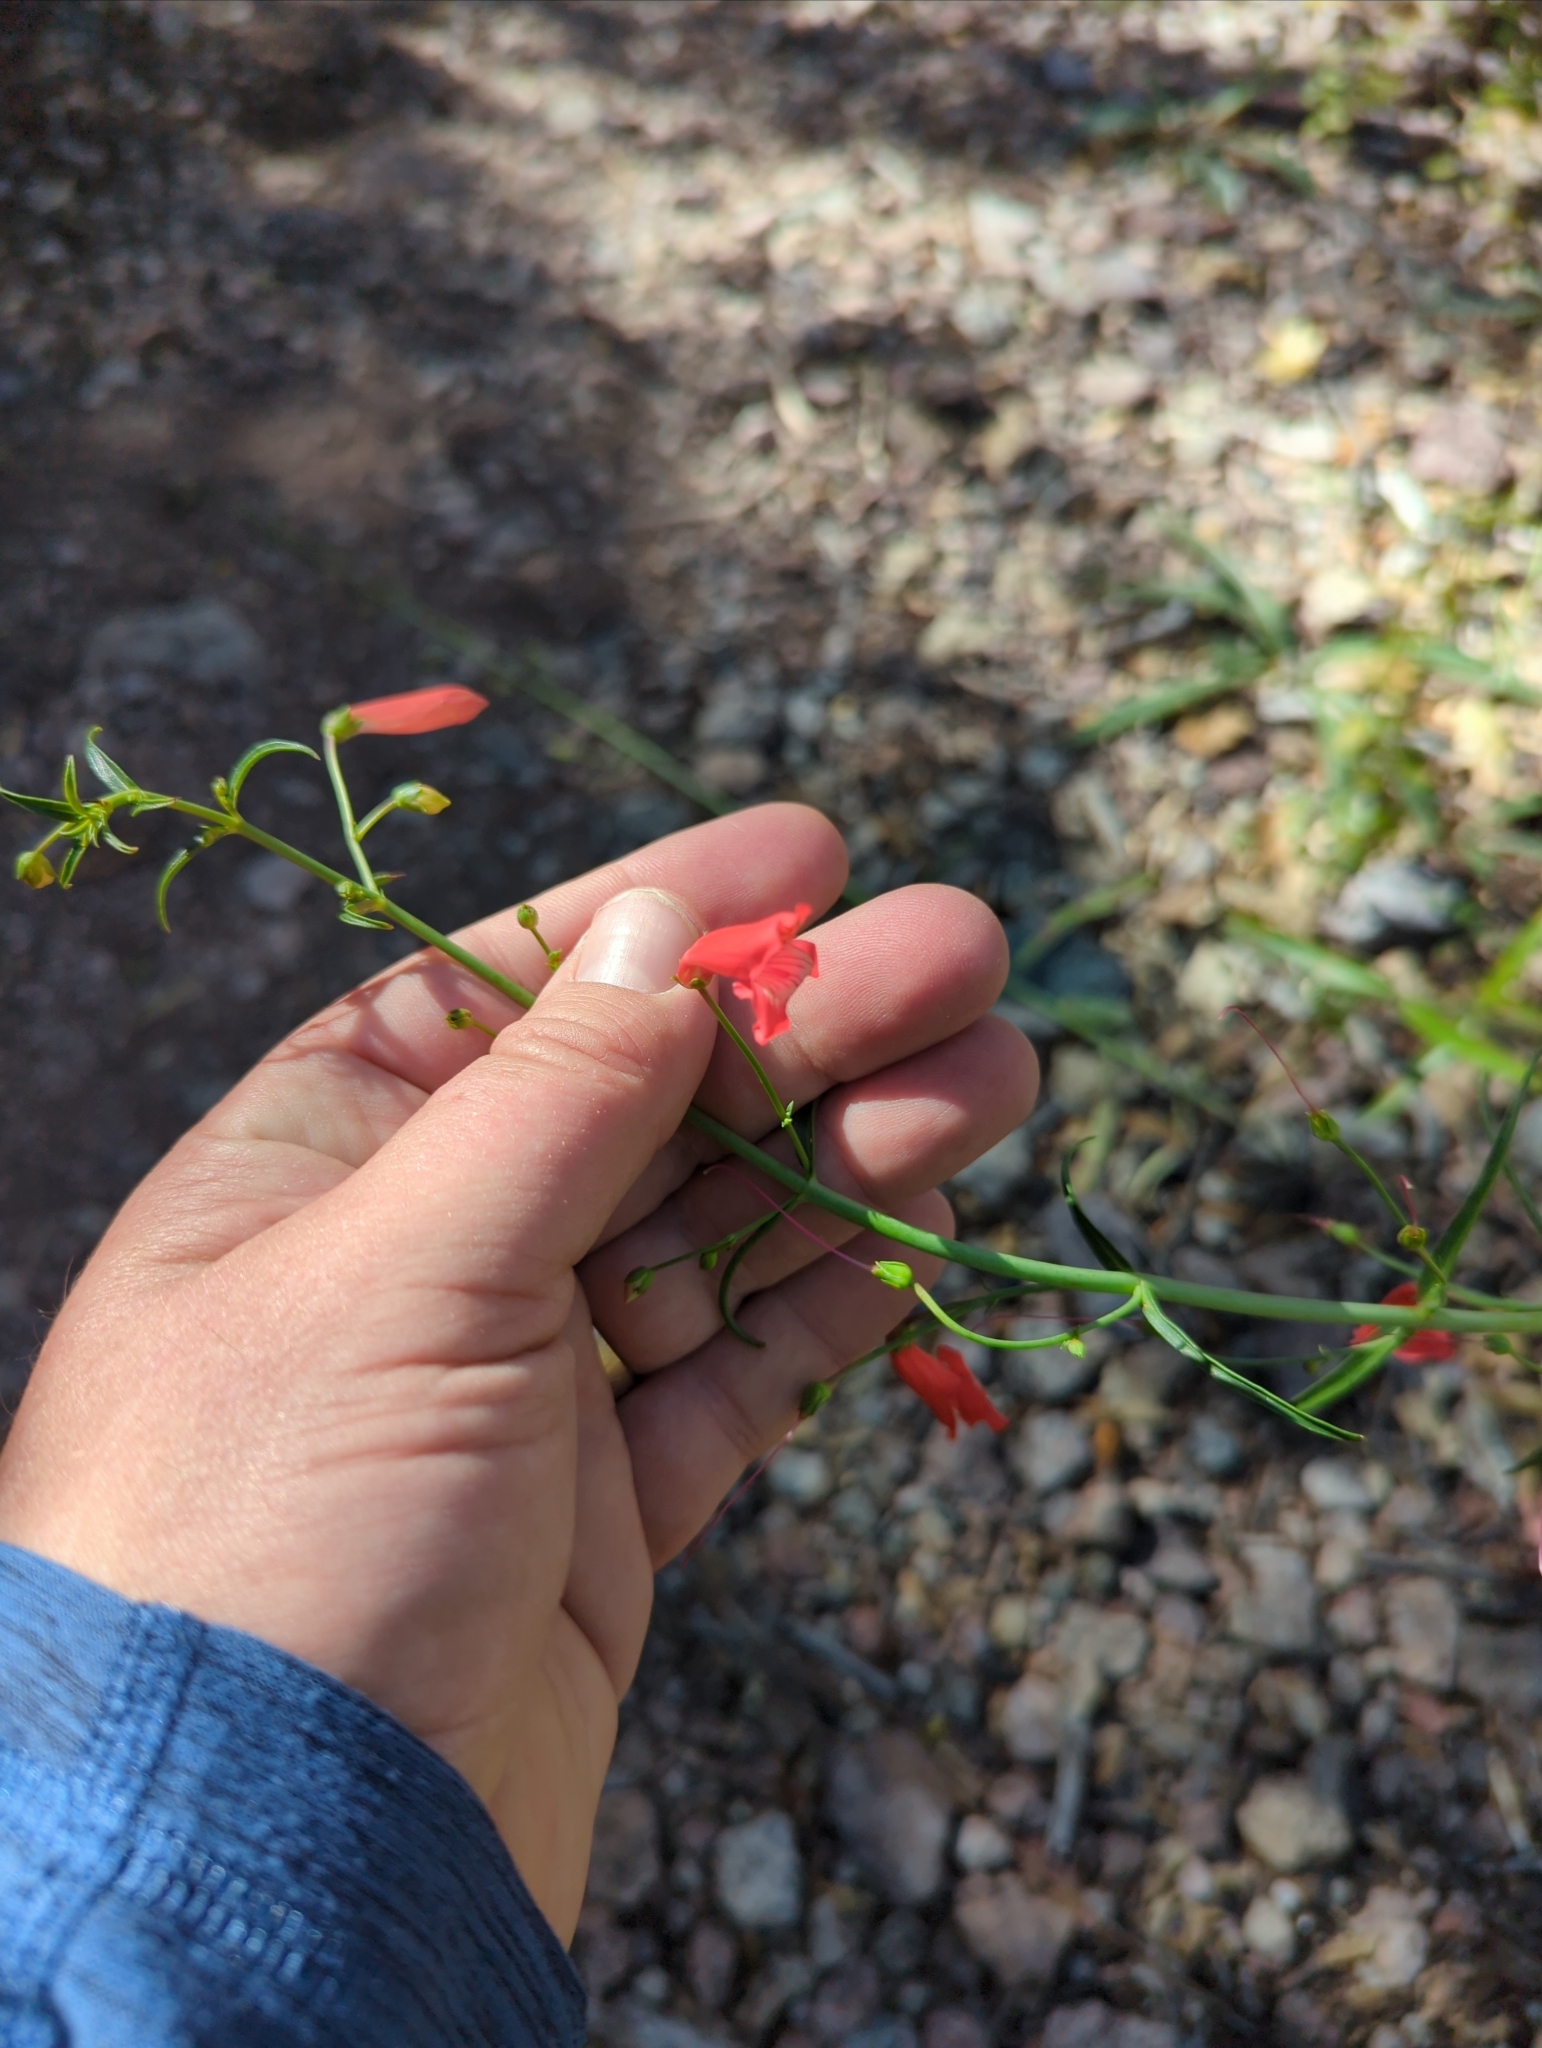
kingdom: Plantae
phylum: Tracheophyta
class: Magnoliopsida
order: Lamiales
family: Plantaginaceae
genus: Penstemon
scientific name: Penstemon barbatus
